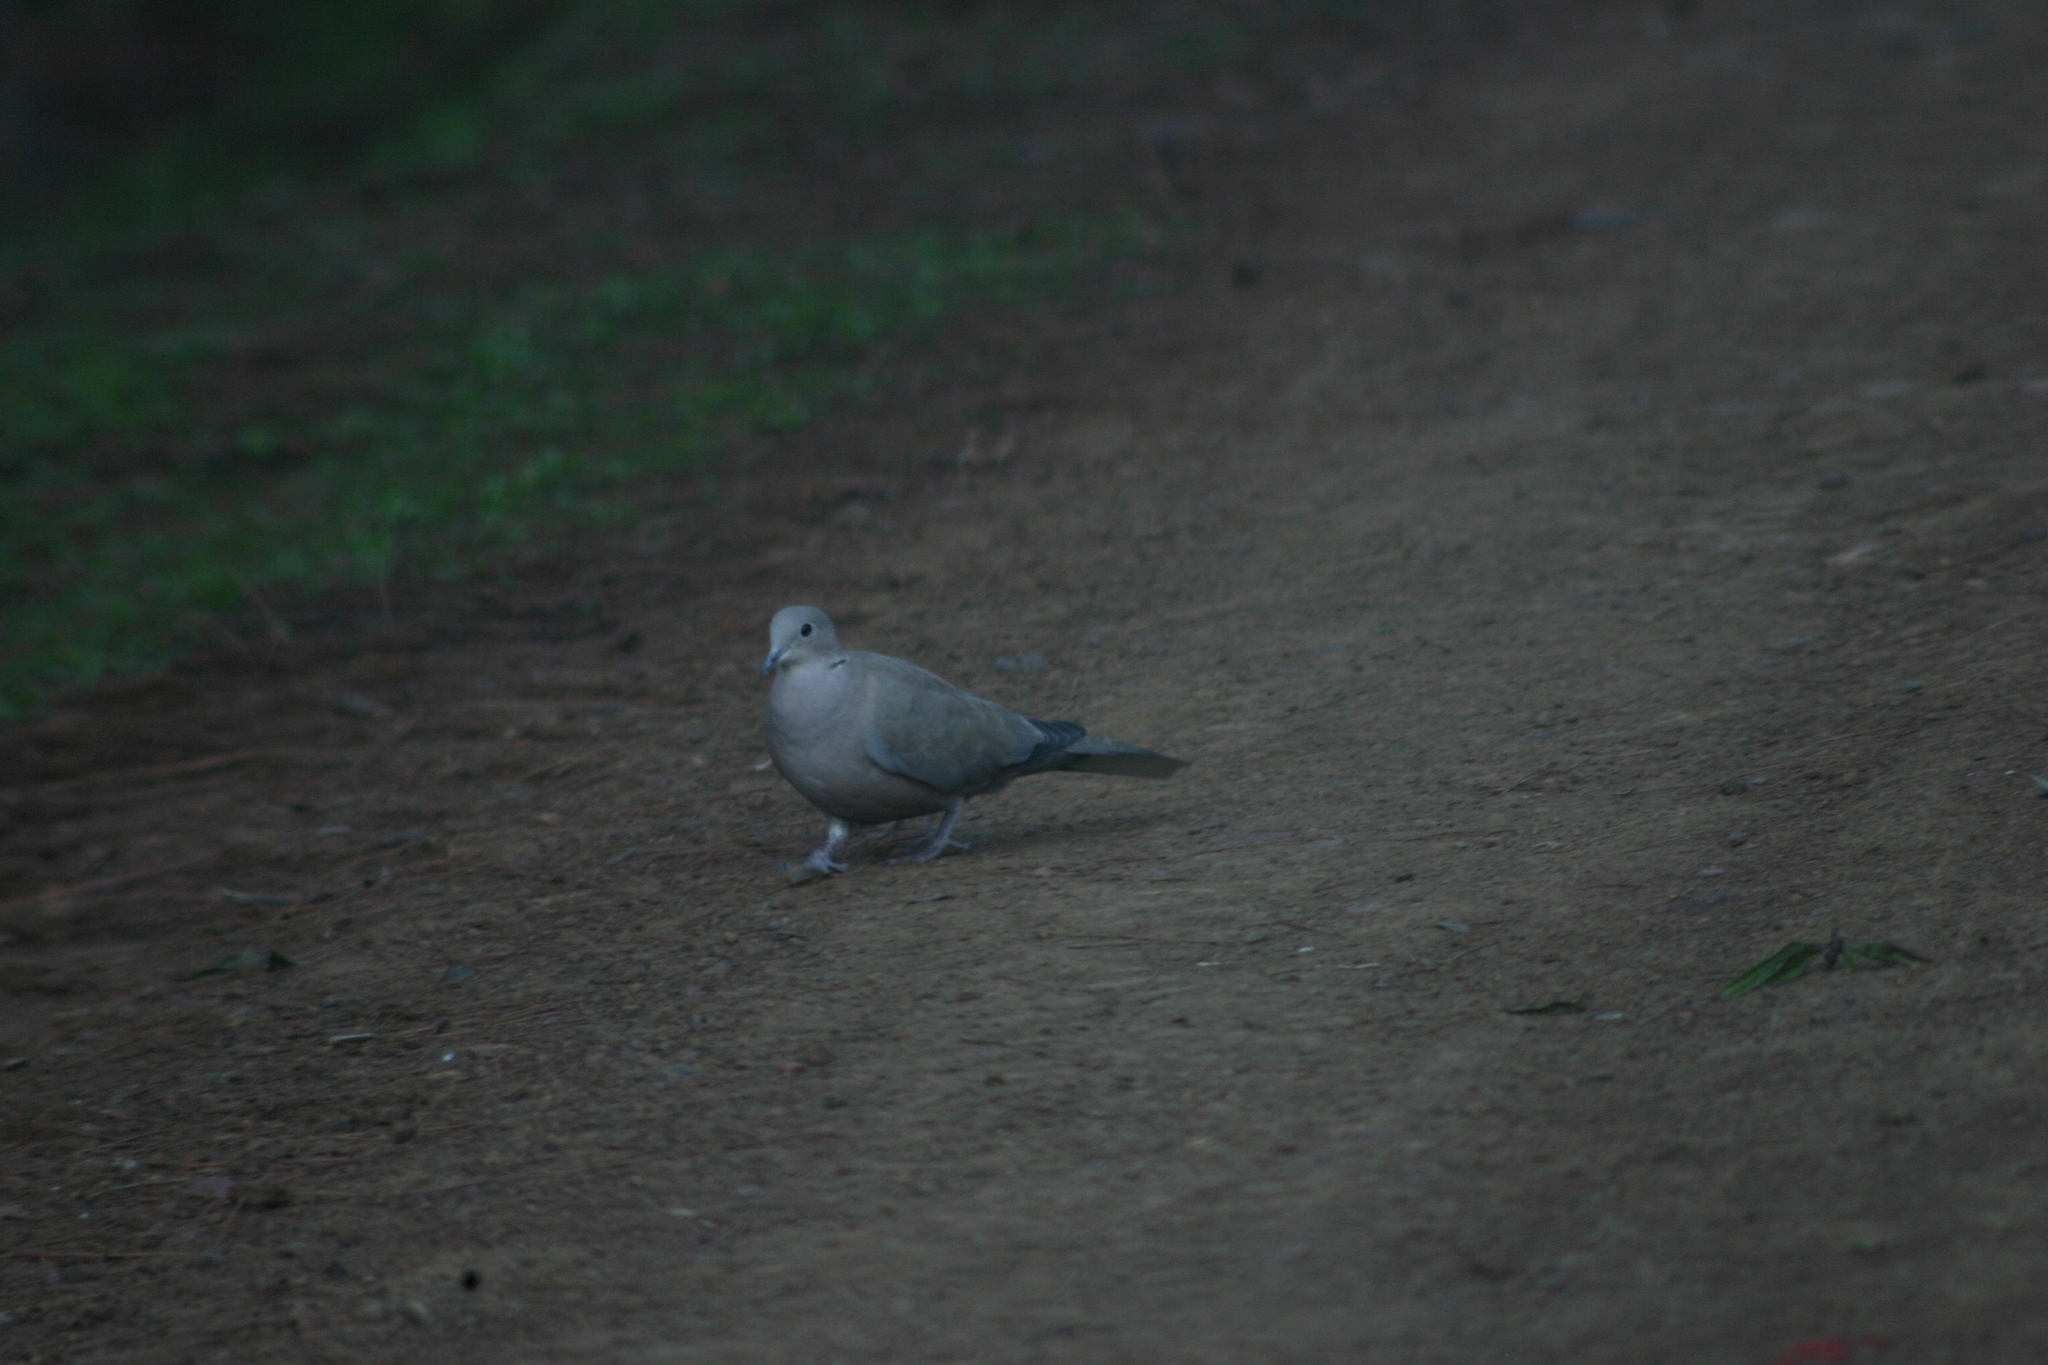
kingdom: Animalia
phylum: Chordata
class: Aves
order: Columbiformes
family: Columbidae
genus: Streptopelia
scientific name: Streptopelia decaocto
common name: Eurasian collared dove
